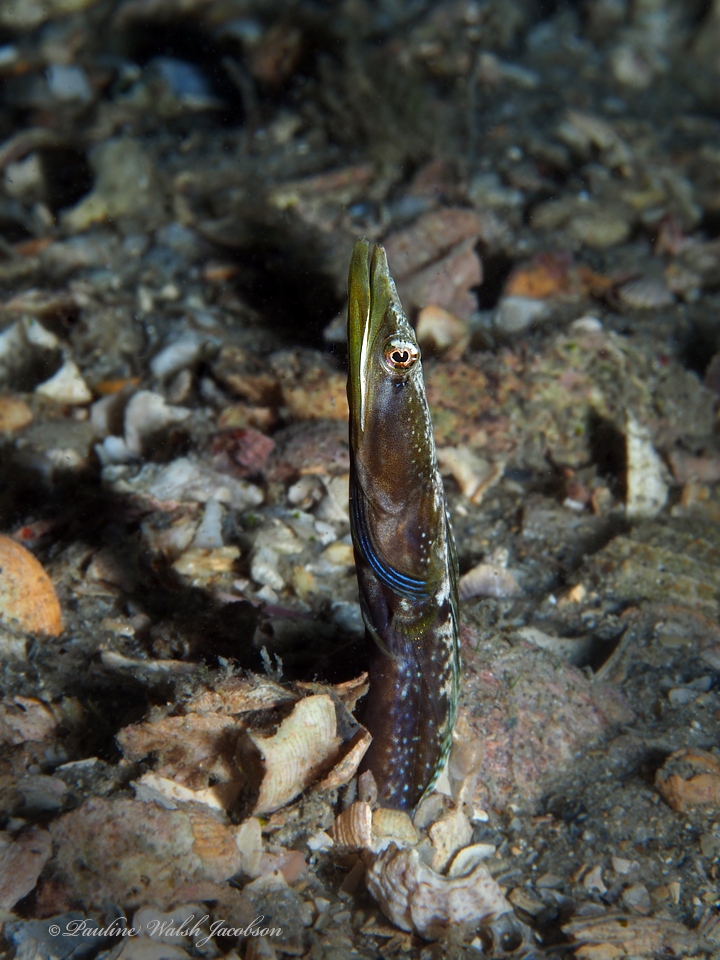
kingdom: Animalia
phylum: Chordata
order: Perciformes
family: Chaenopsidae
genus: Chaenopsis
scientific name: Chaenopsis ocellata
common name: Bluethroat pikeblenny
